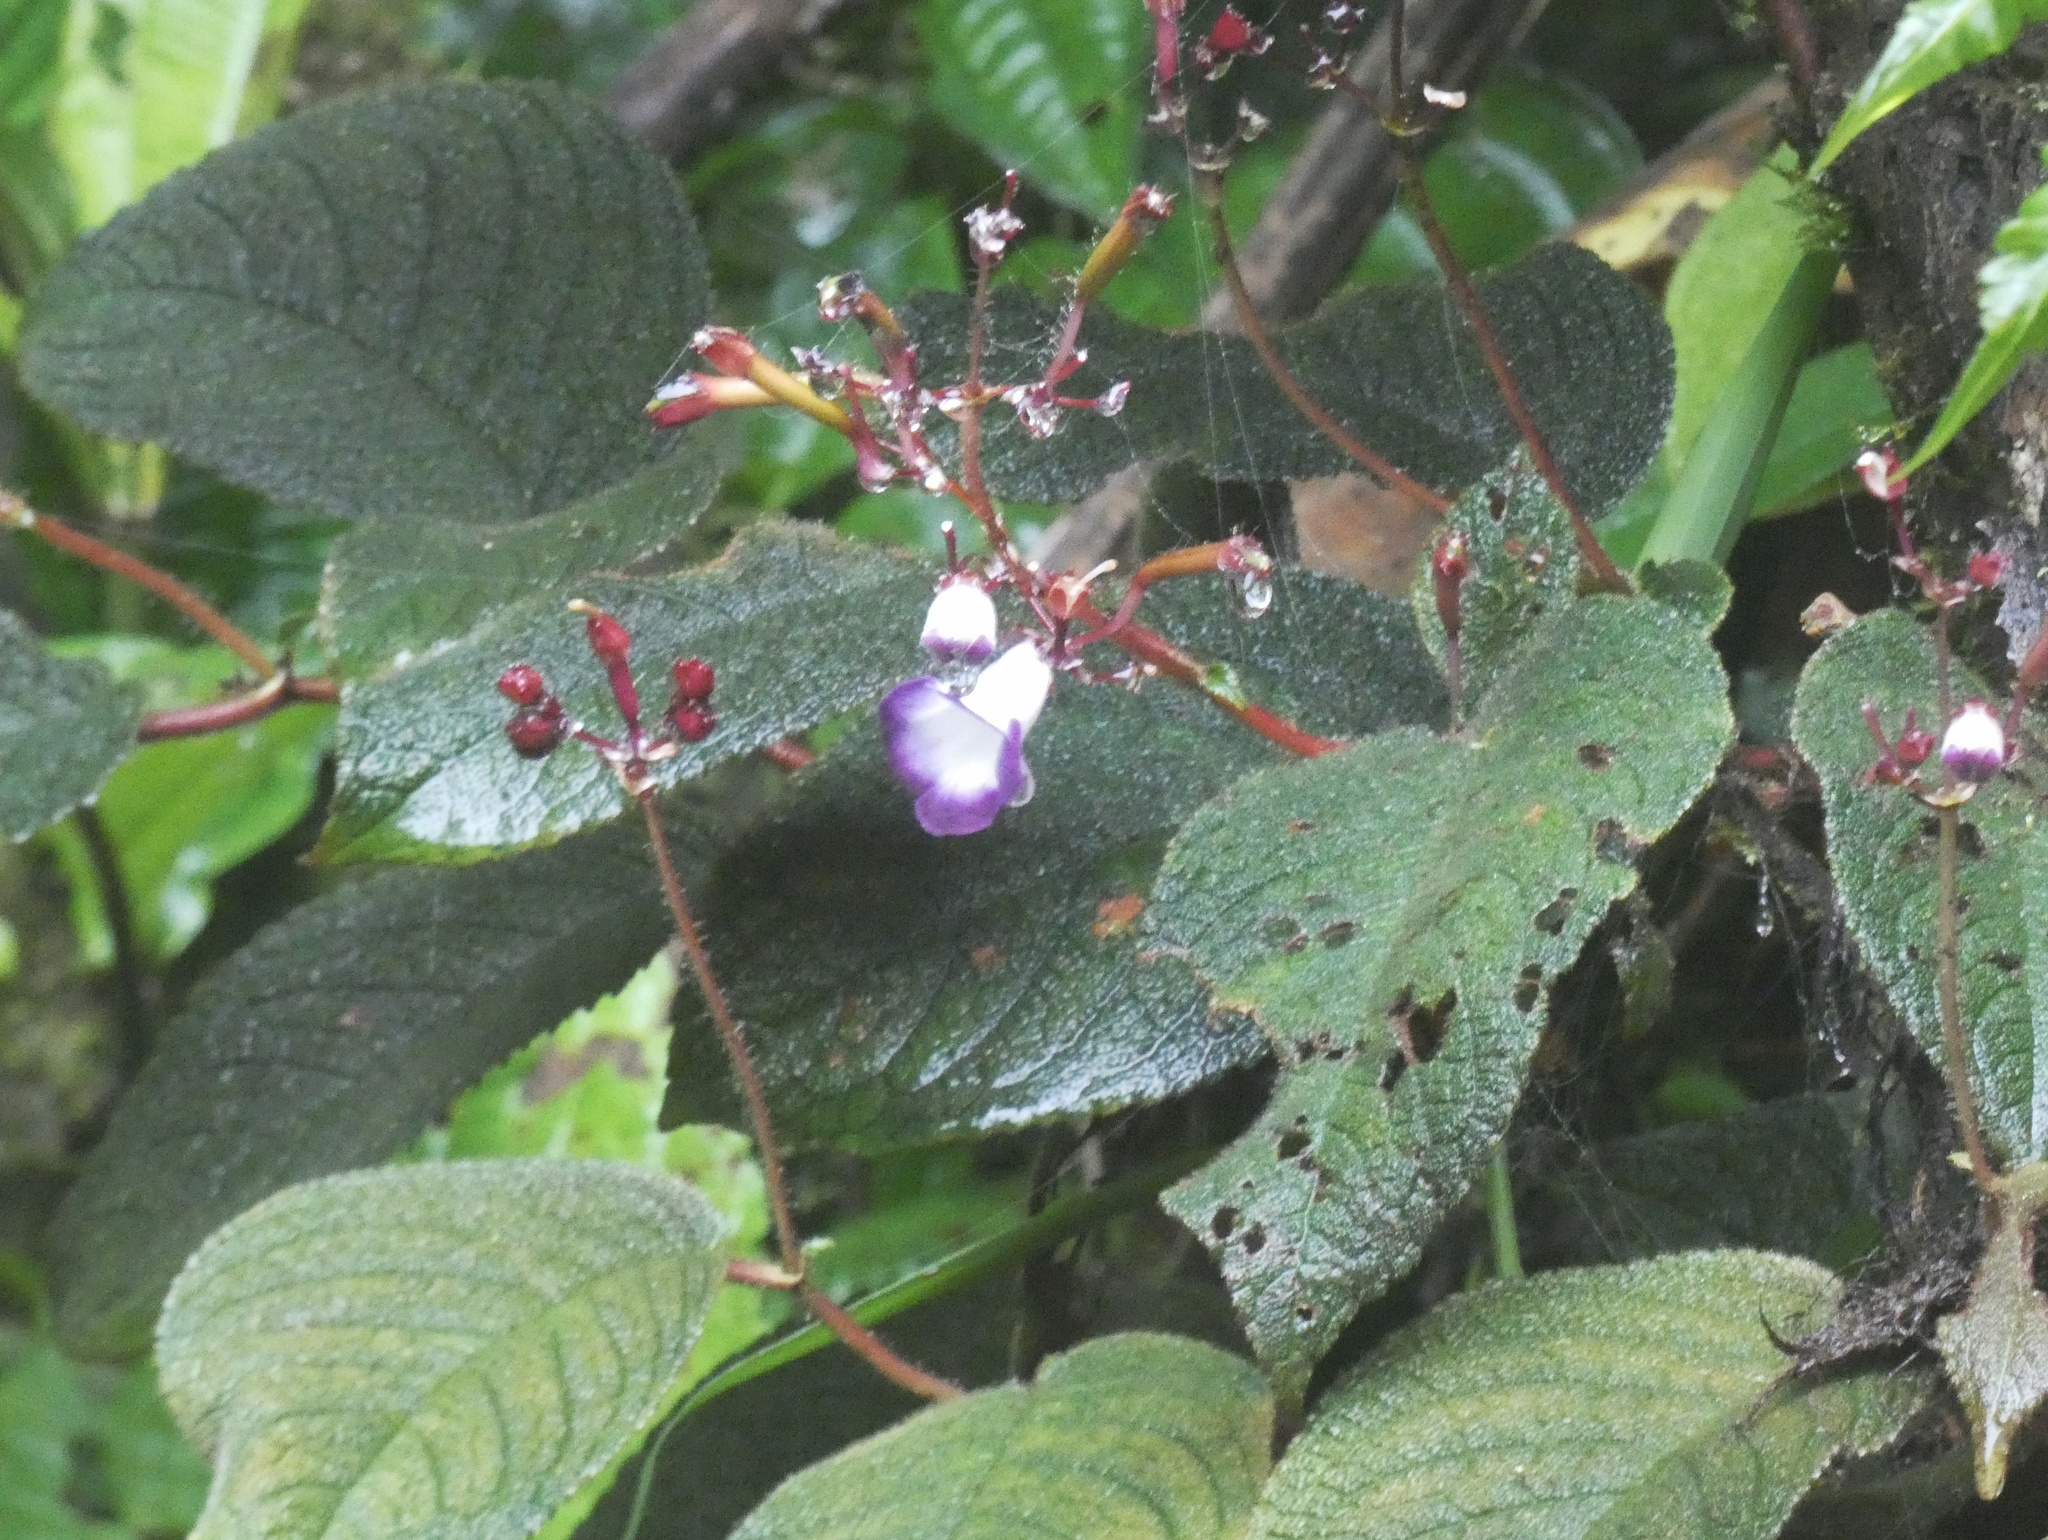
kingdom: Plantae
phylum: Tracheophyta
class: Magnoliopsida
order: Lamiales
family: Gesneriaceae
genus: Monopyle
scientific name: Monopyle maxonii
